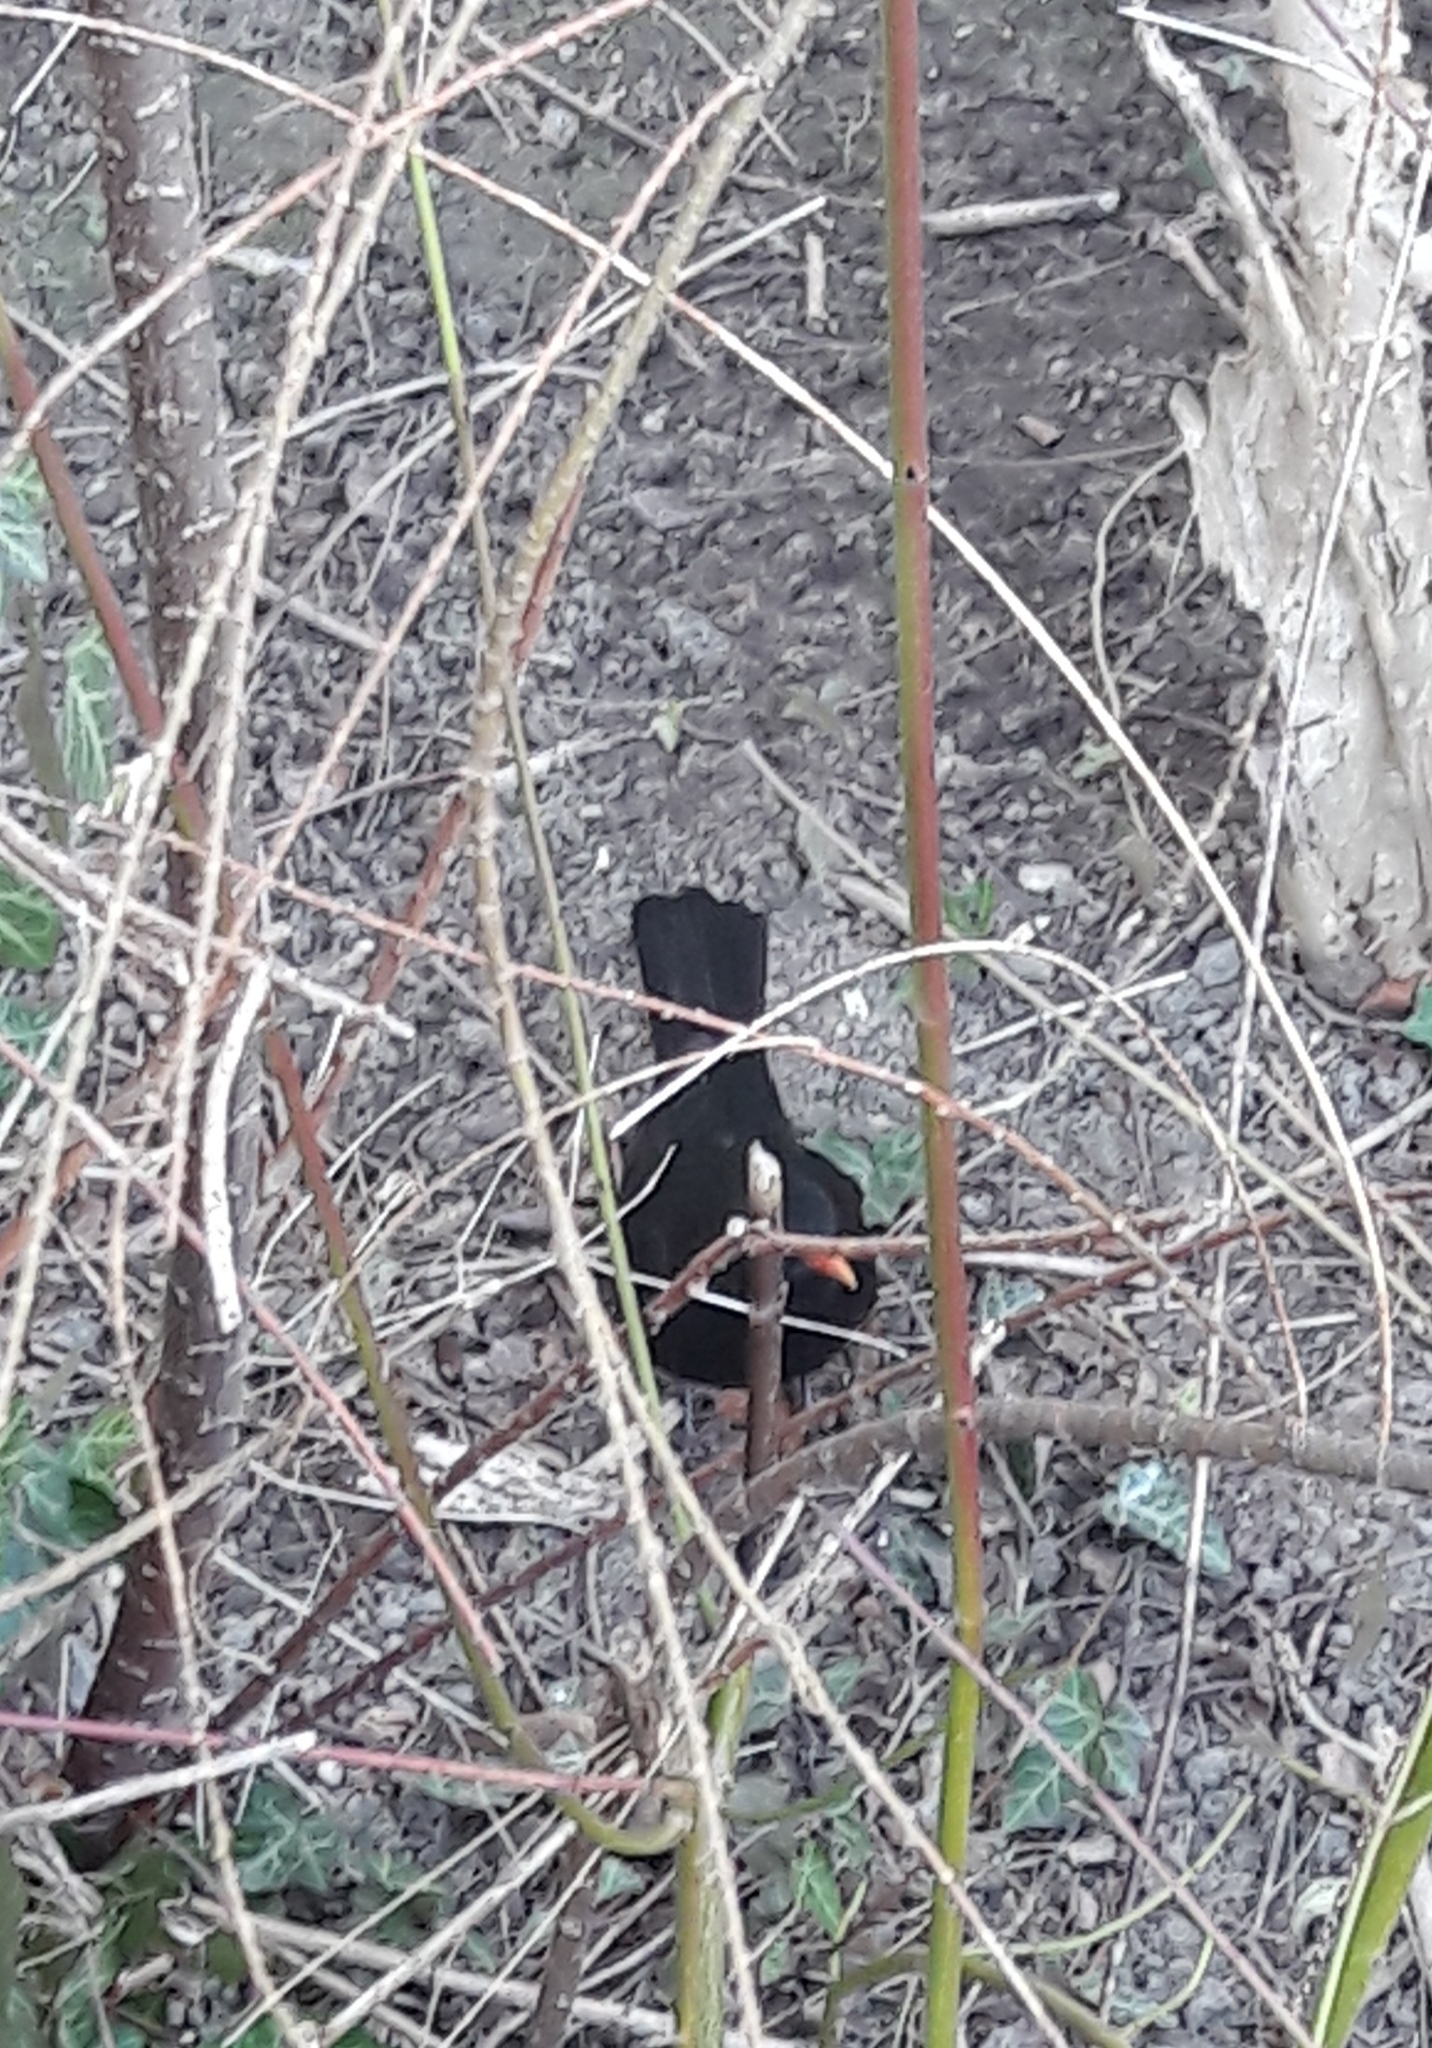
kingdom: Animalia
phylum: Chordata
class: Aves
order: Passeriformes
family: Turdidae
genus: Turdus
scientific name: Turdus merula
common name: Common blackbird
